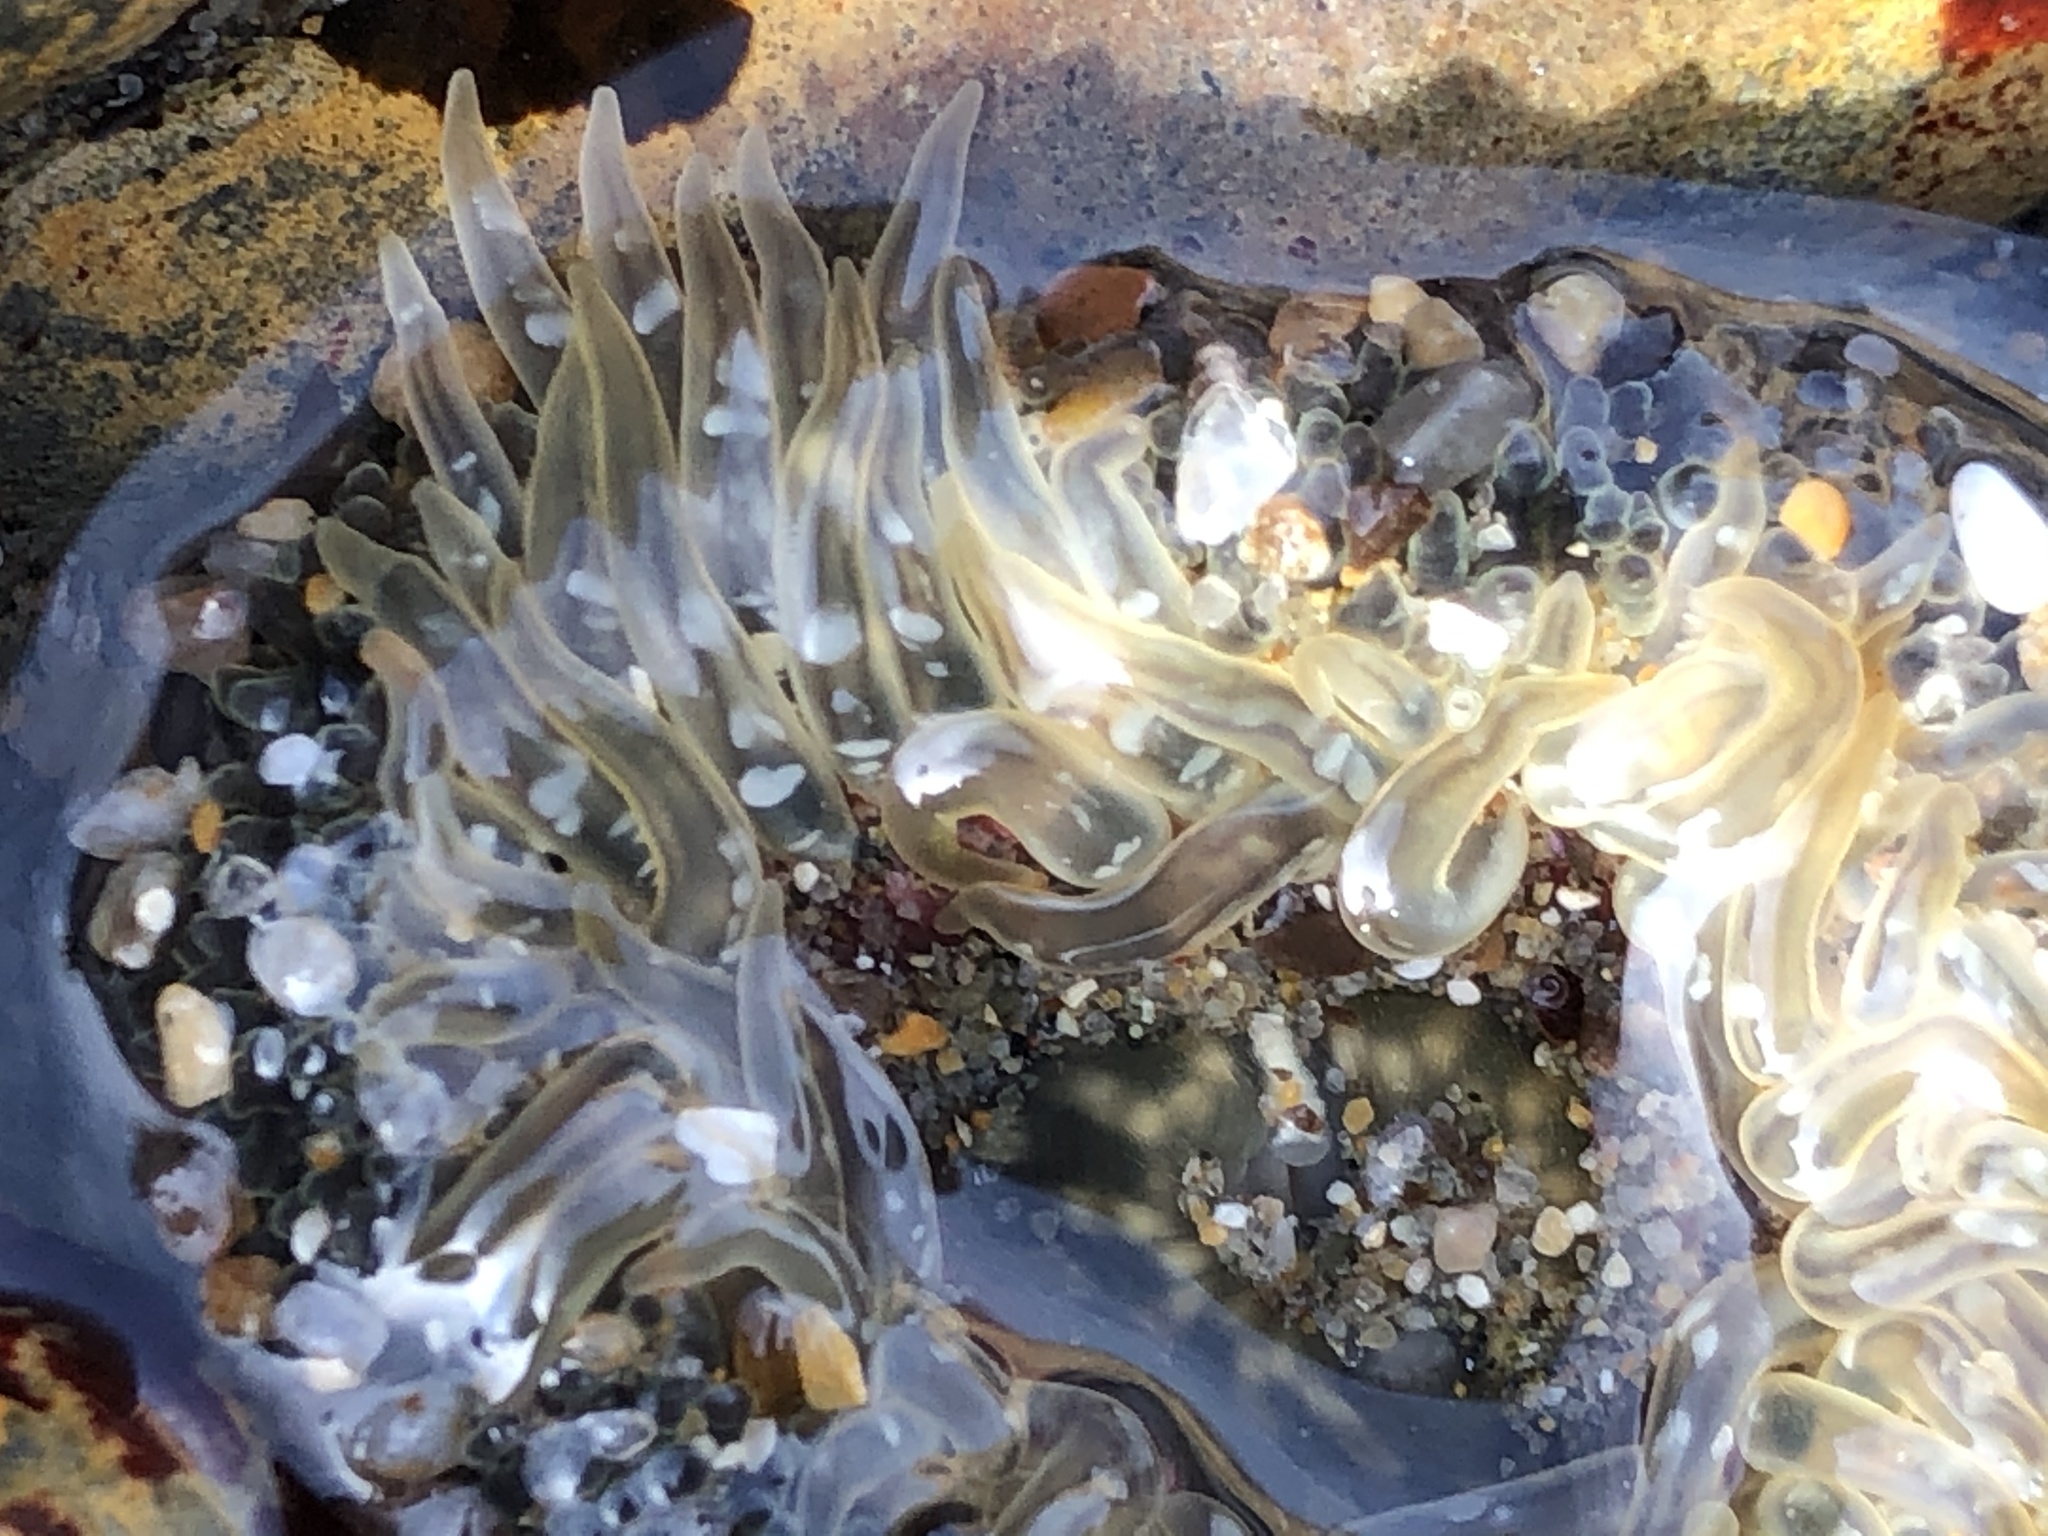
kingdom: Animalia
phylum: Cnidaria
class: Anthozoa
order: Actiniaria
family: Actiniidae
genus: Anthopleura
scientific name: Anthopleura artemisia
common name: Buried sea anemone
